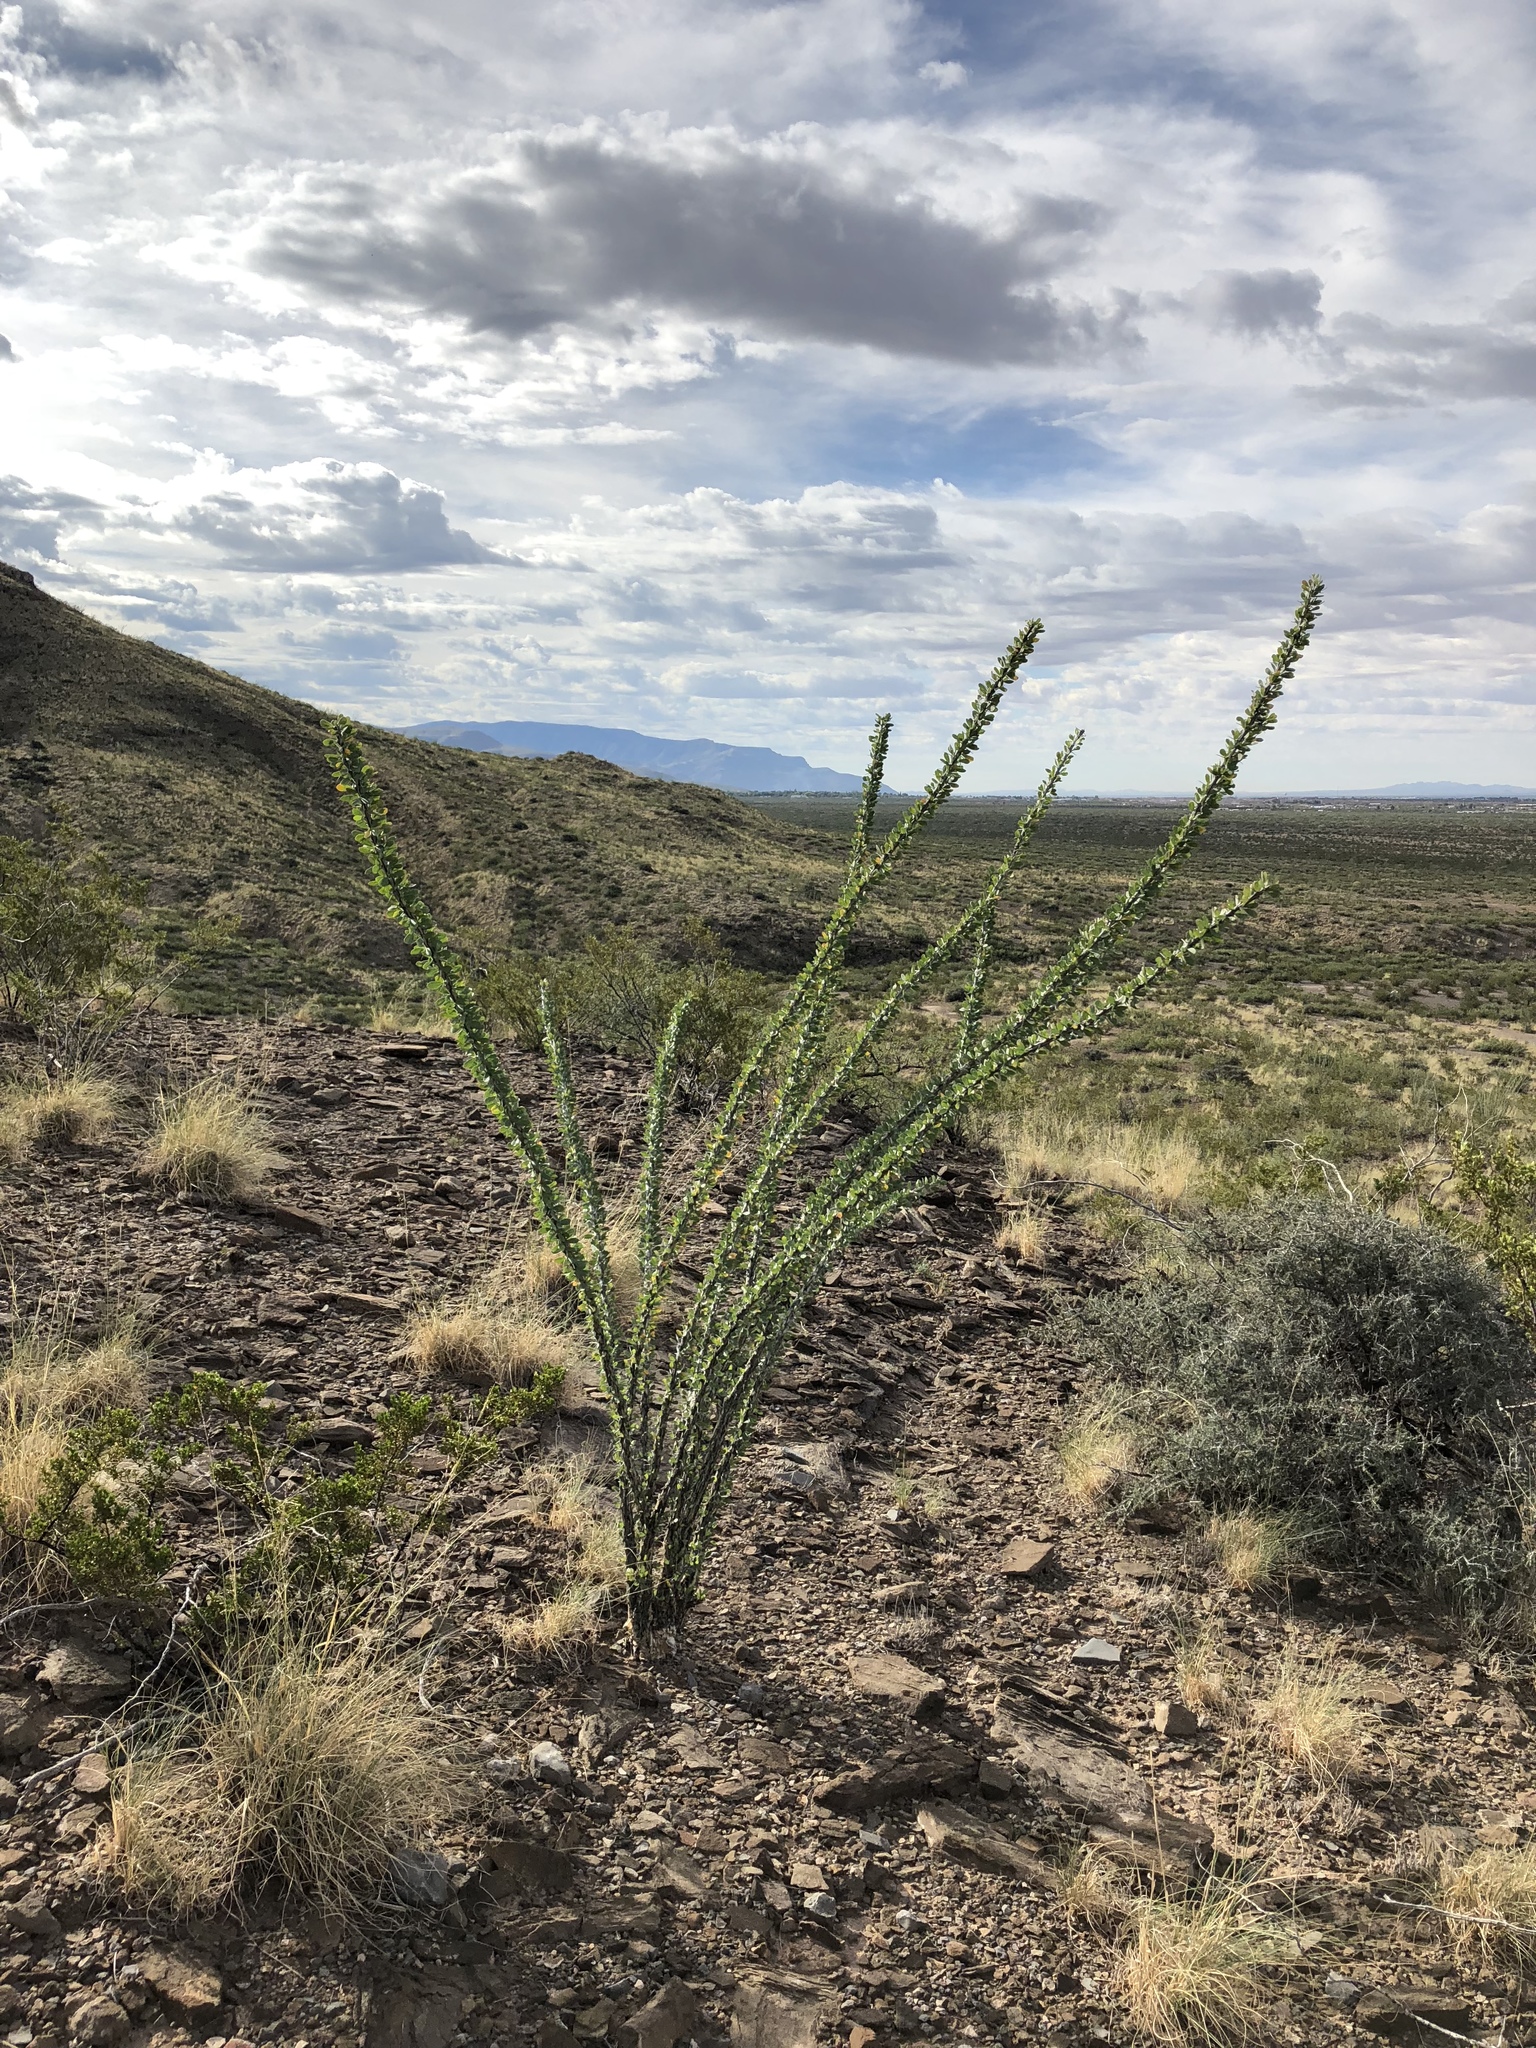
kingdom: Plantae
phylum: Tracheophyta
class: Magnoliopsida
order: Ericales
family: Fouquieriaceae
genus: Fouquieria
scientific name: Fouquieria splendens
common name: Vine-cactus
